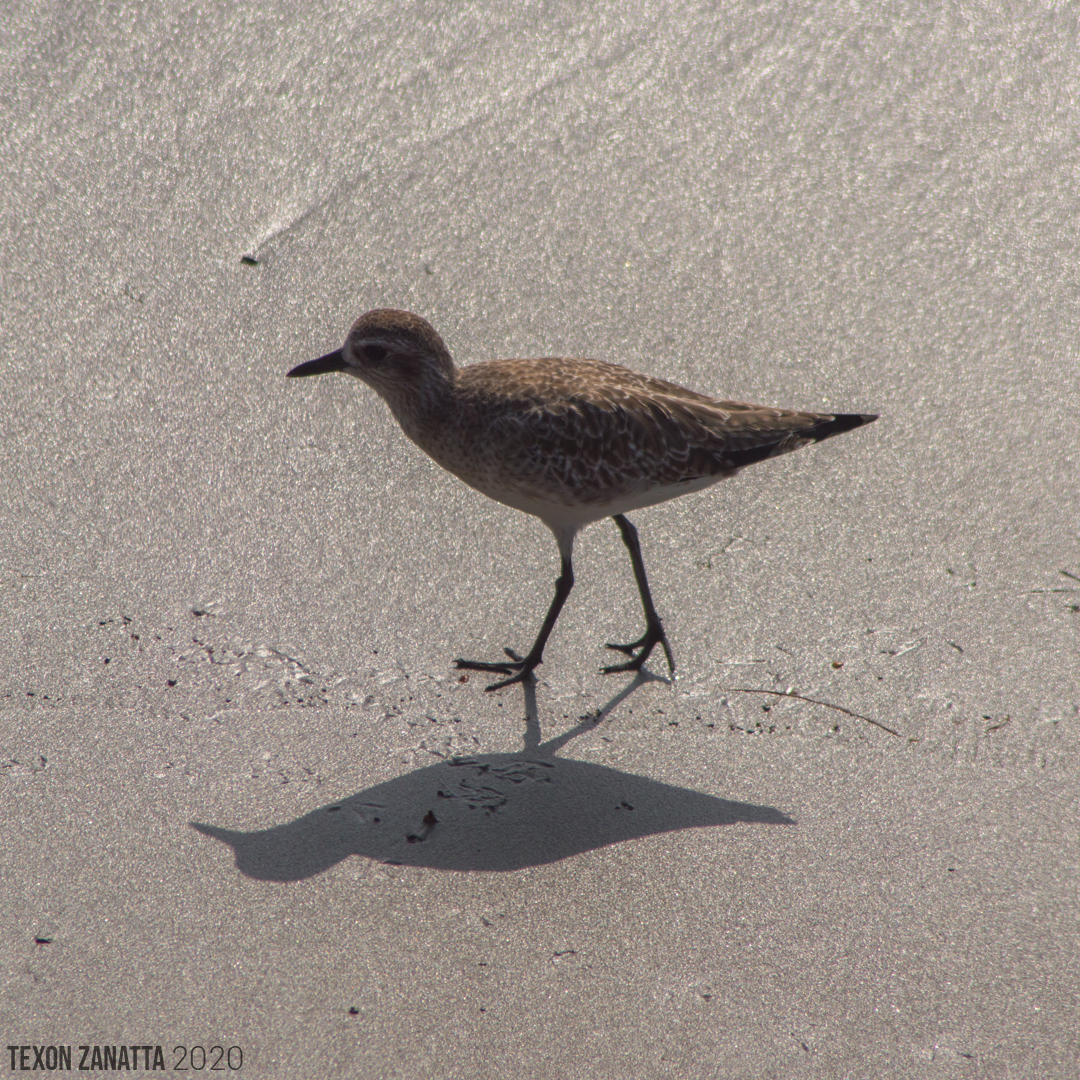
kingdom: Animalia
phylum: Chordata
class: Aves
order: Charadriiformes
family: Charadriidae
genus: Pluvialis
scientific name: Pluvialis squatarola
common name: Grey plover
